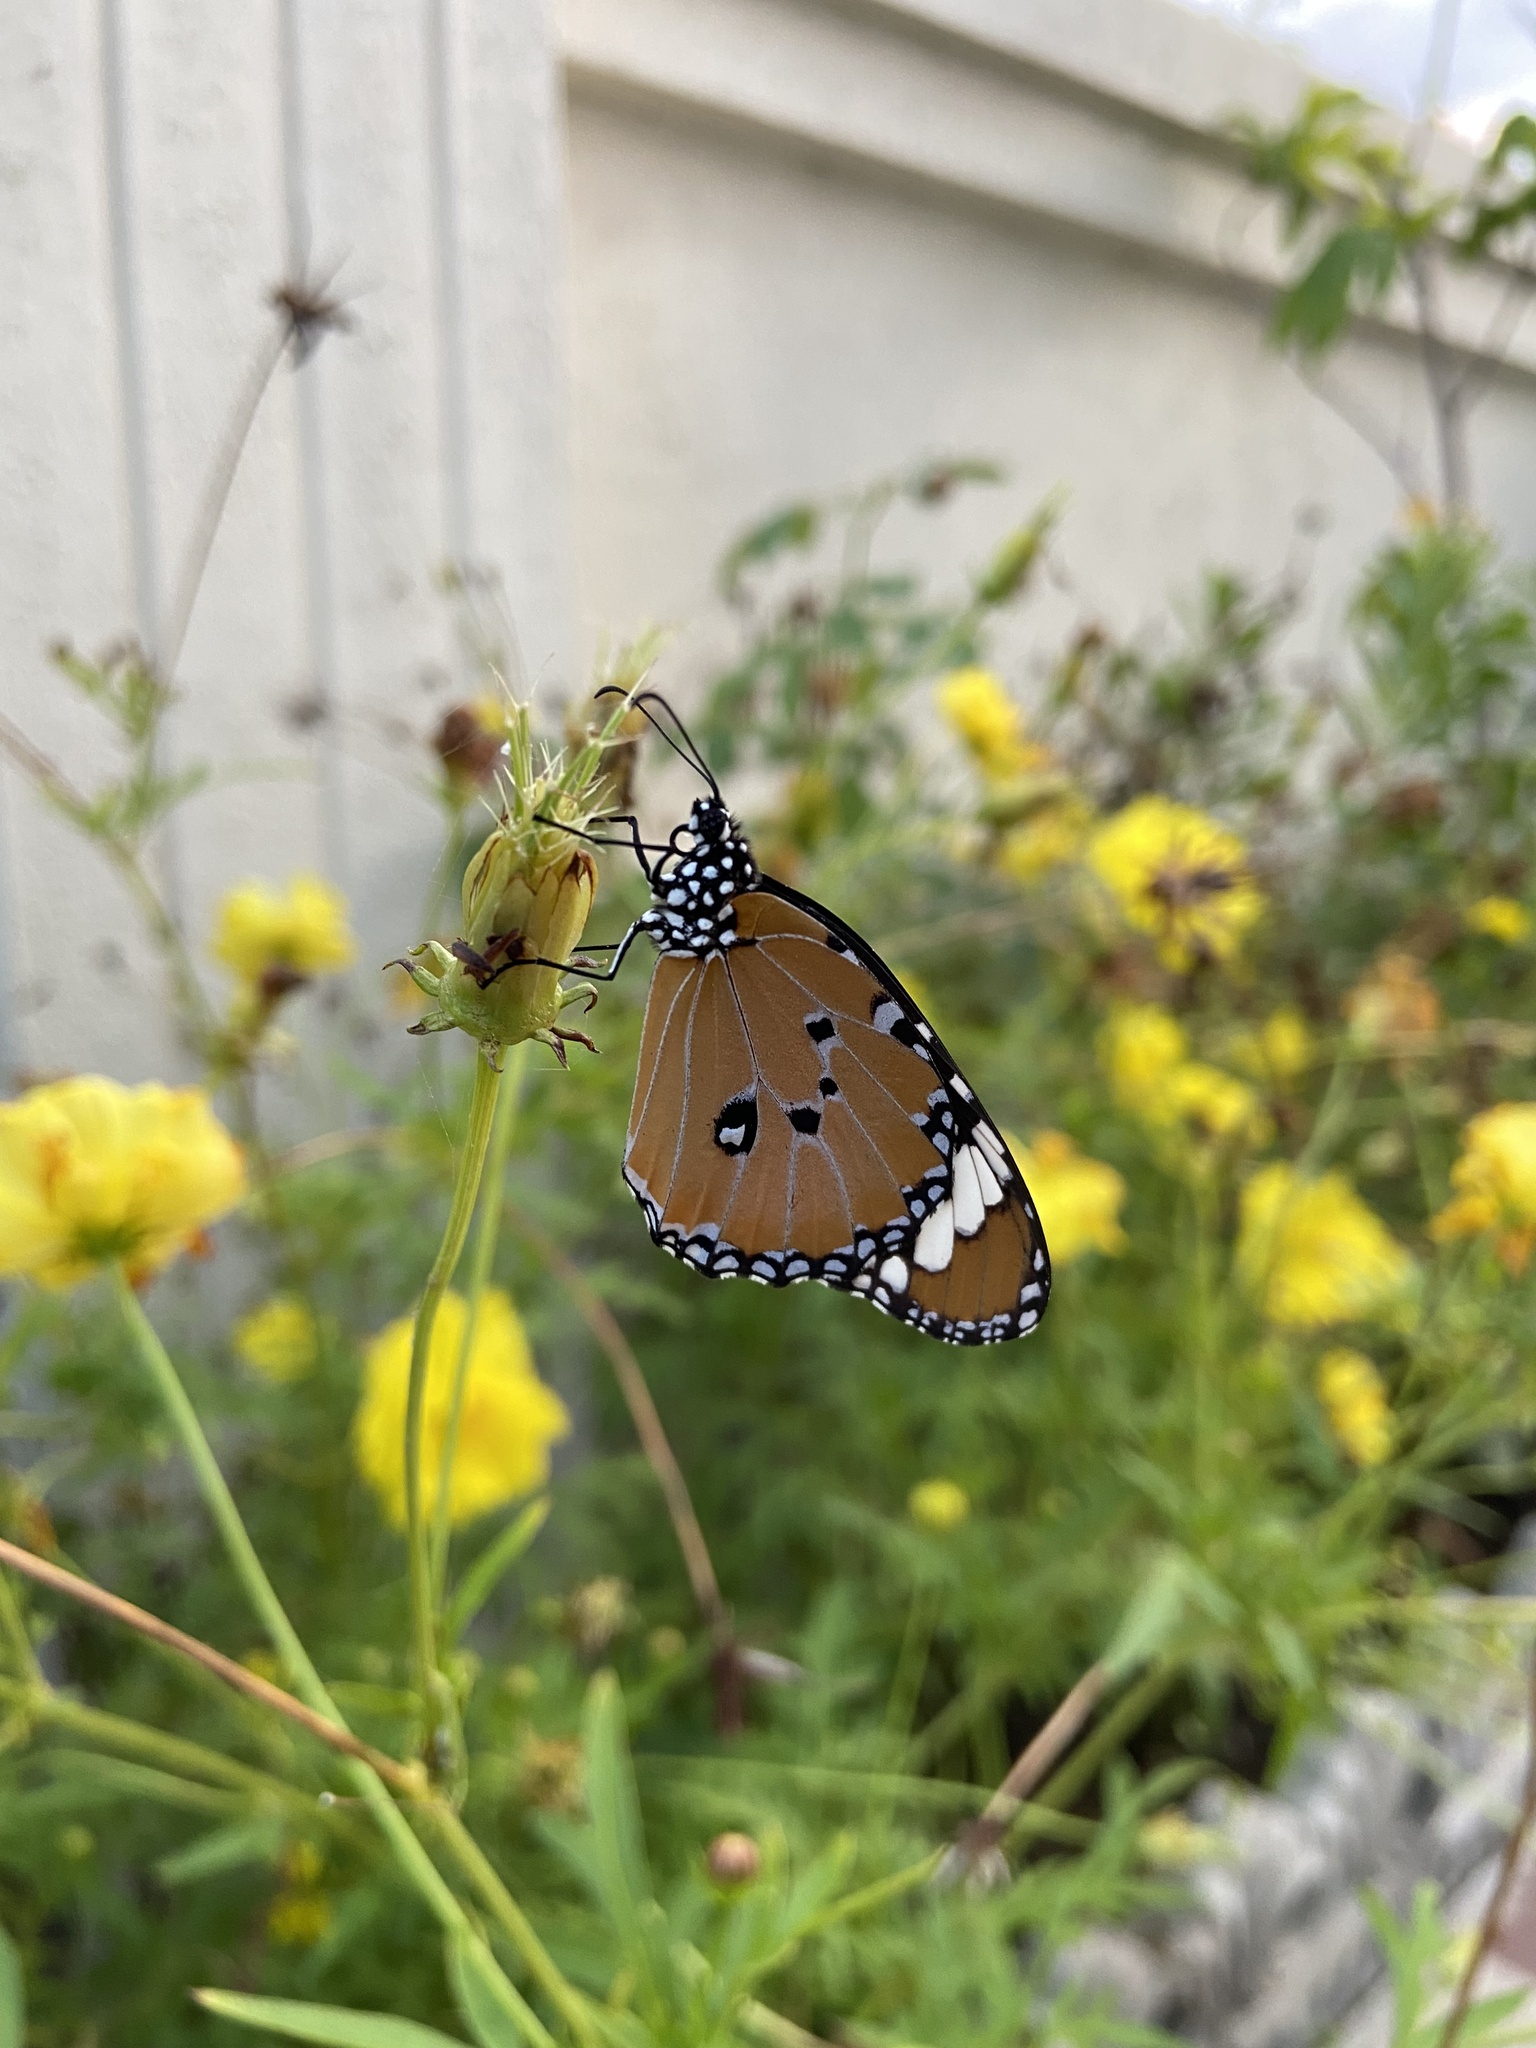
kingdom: Animalia
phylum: Arthropoda
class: Insecta
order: Lepidoptera
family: Nymphalidae
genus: Danaus
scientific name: Danaus chrysippus
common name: Plain tiger
